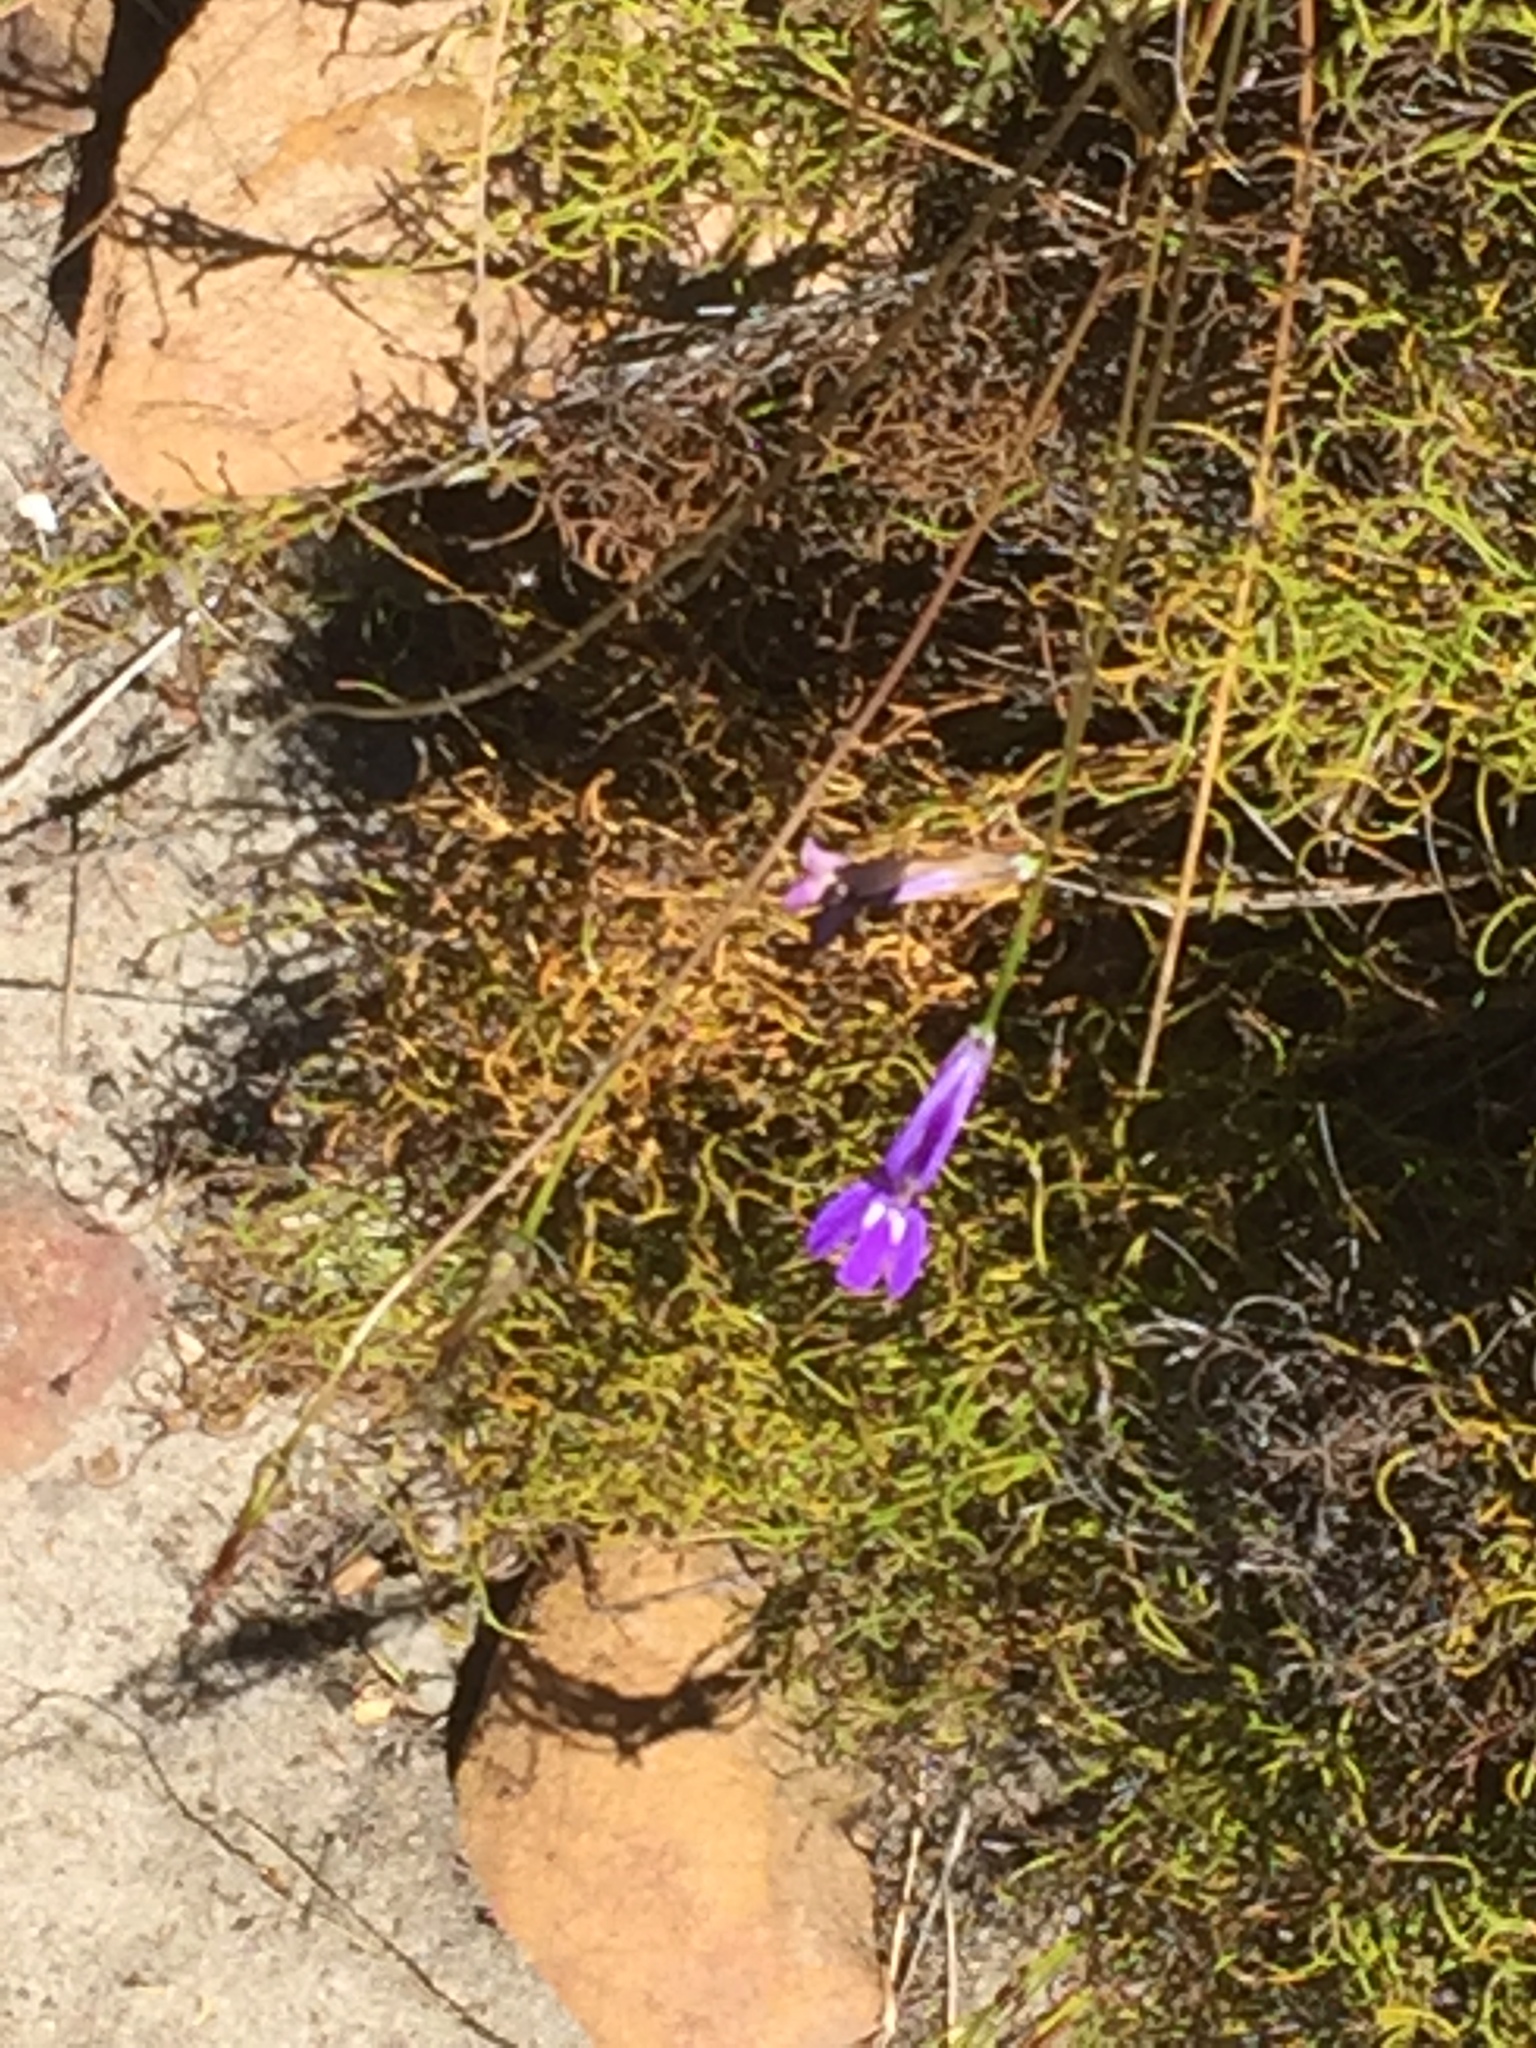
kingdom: Plantae
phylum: Tracheophyta
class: Magnoliopsida
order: Asterales
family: Campanulaceae
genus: Lobelia
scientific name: Lobelia coronopifolia
